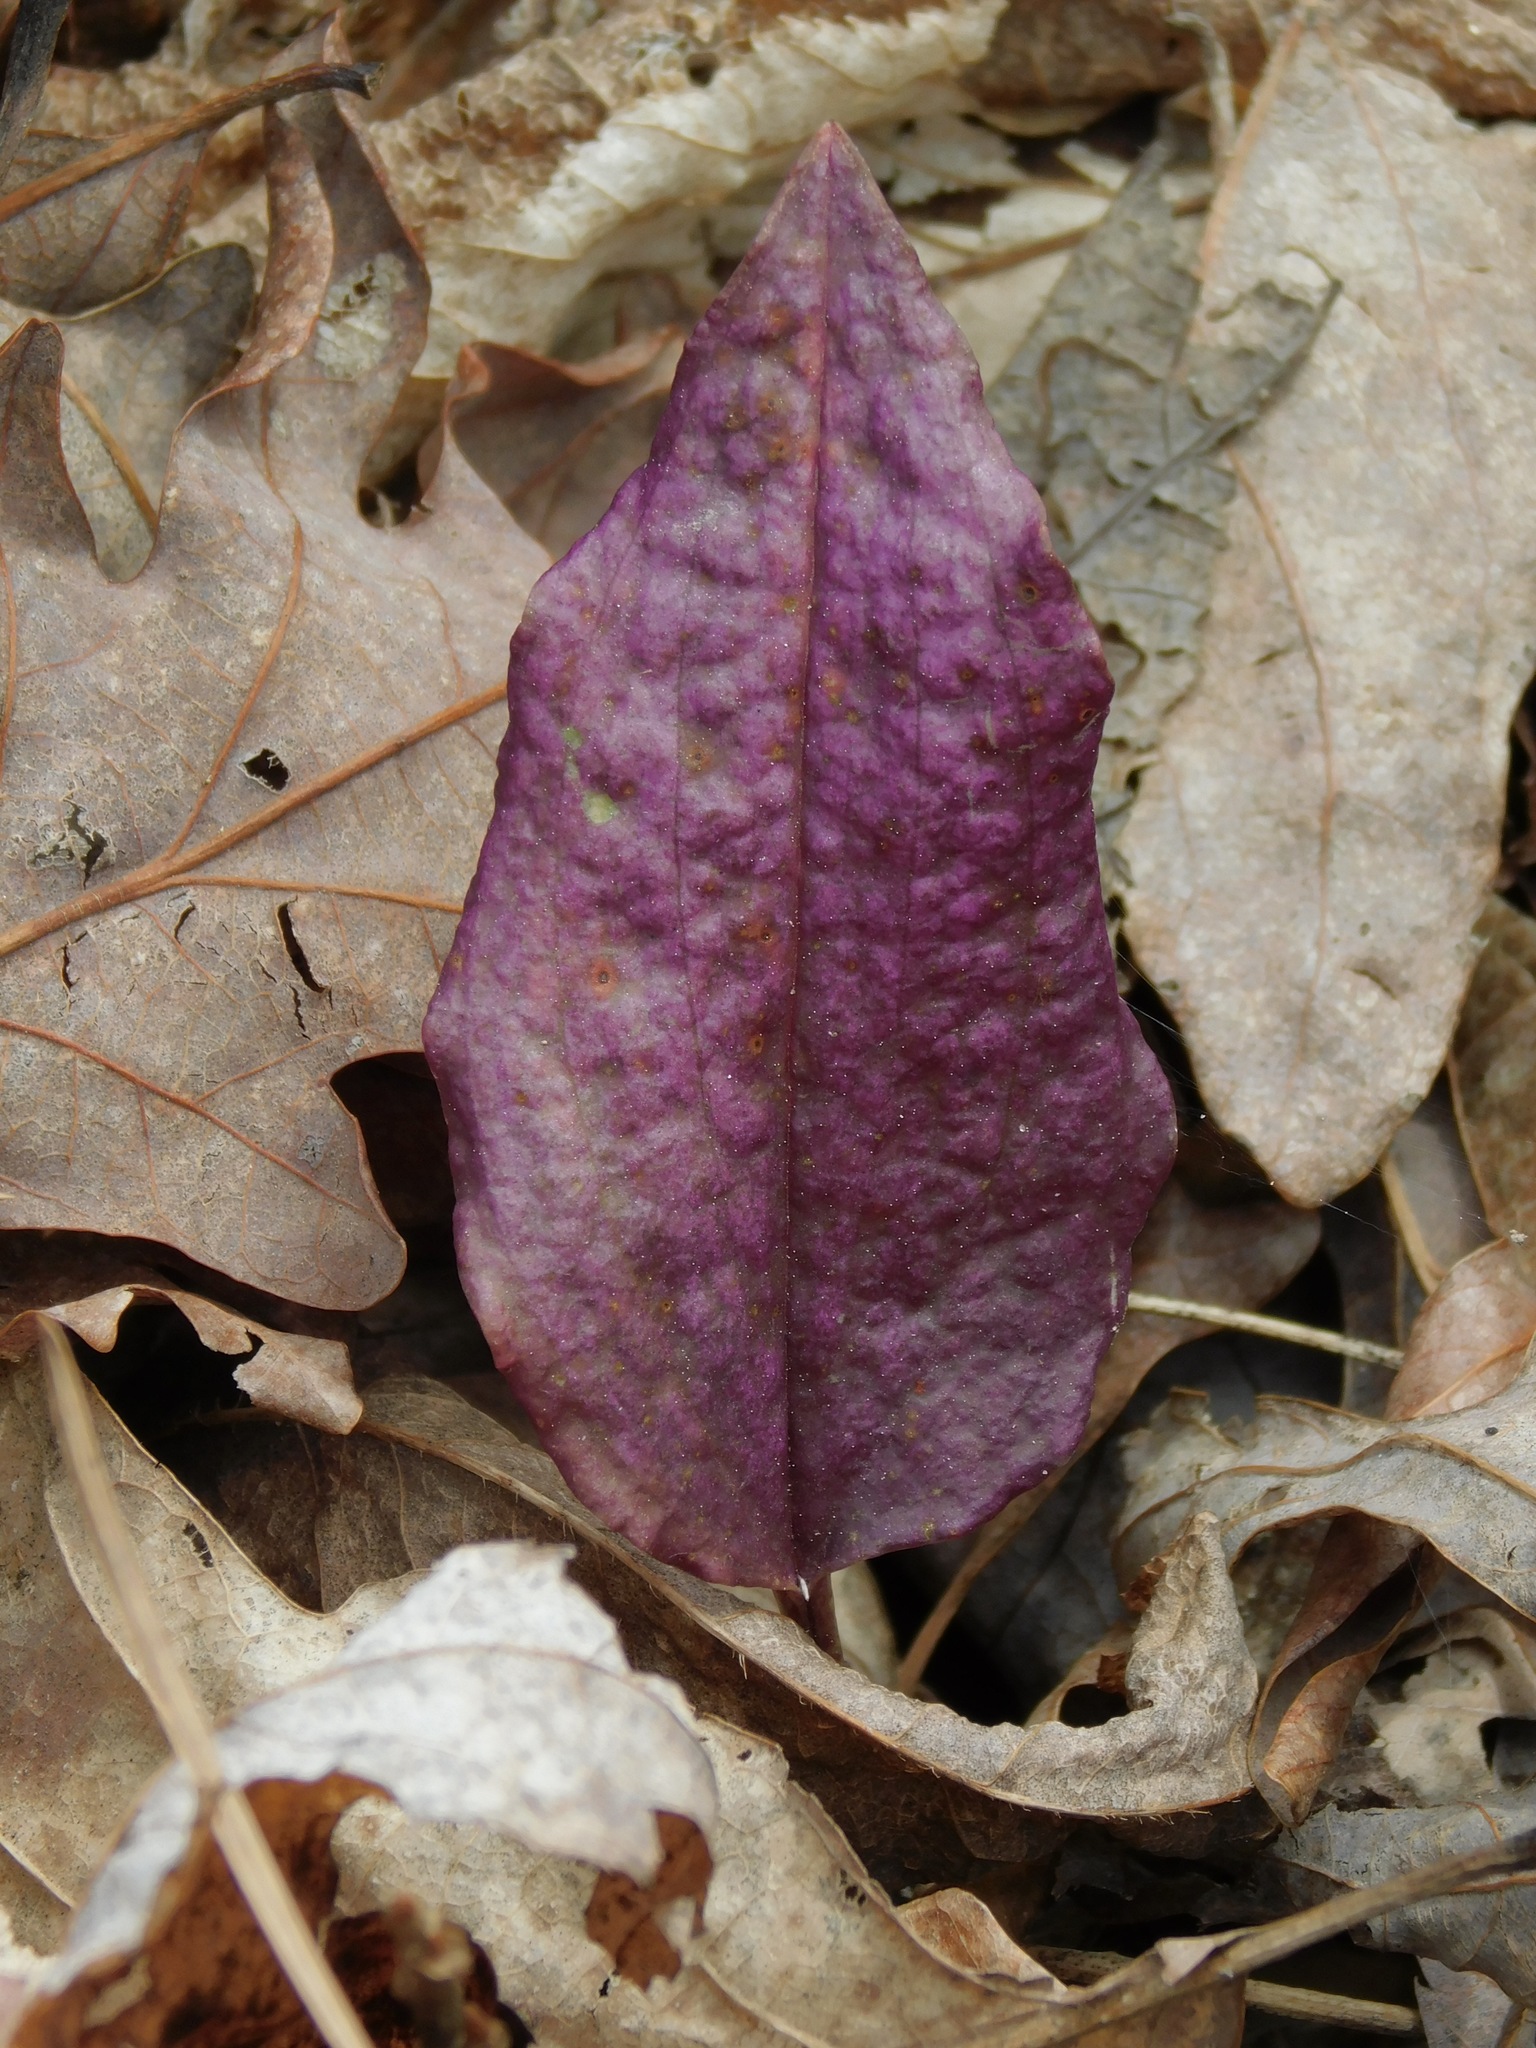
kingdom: Plantae
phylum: Tracheophyta
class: Liliopsida
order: Asparagales
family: Orchidaceae
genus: Tipularia
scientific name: Tipularia discolor
